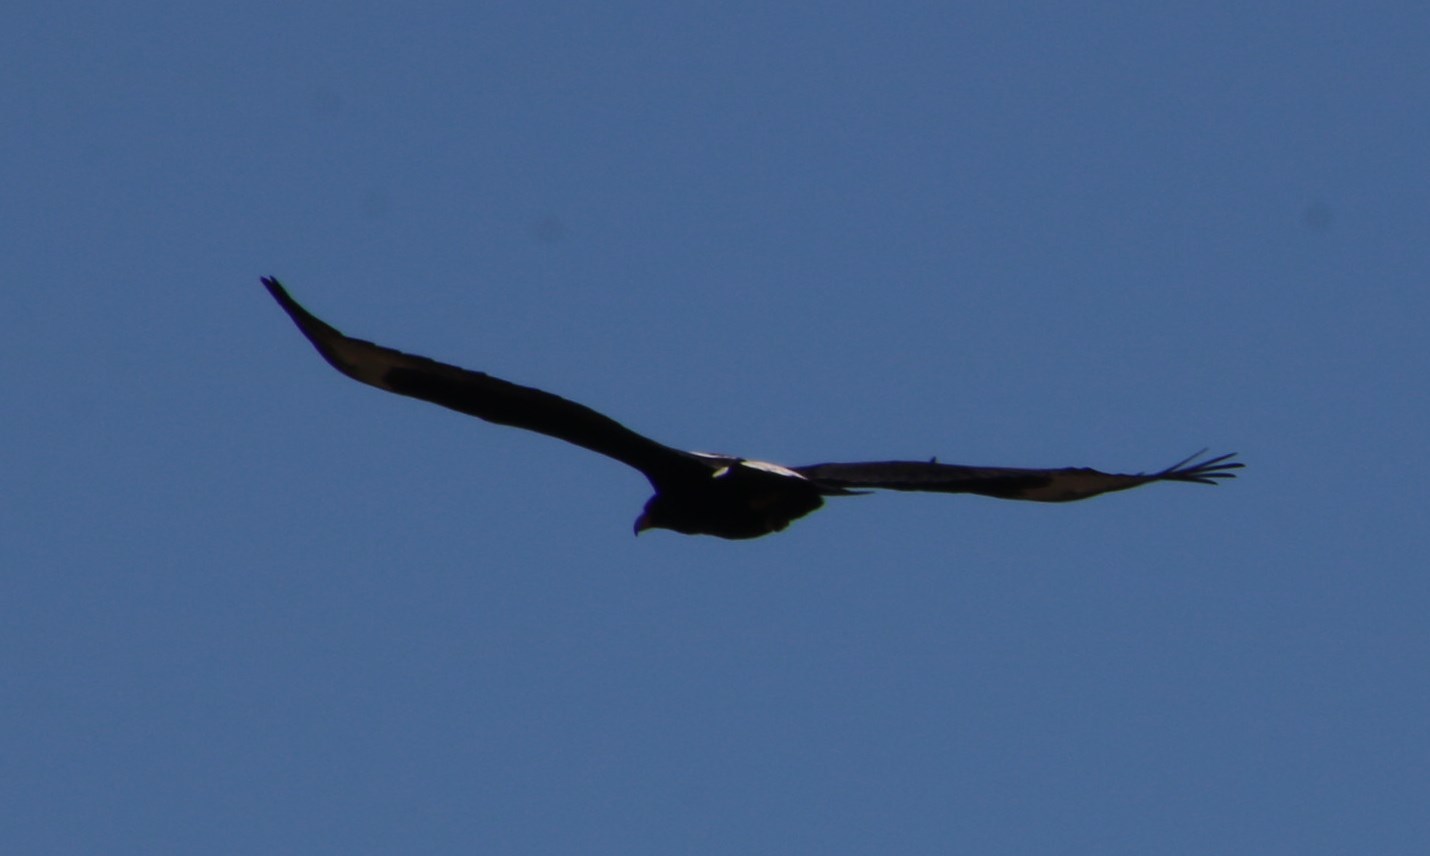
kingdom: Animalia
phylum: Chordata
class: Aves
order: Accipitriformes
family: Accipitridae
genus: Aquila
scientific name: Aquila verreauxii
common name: Verreaux's eagle
